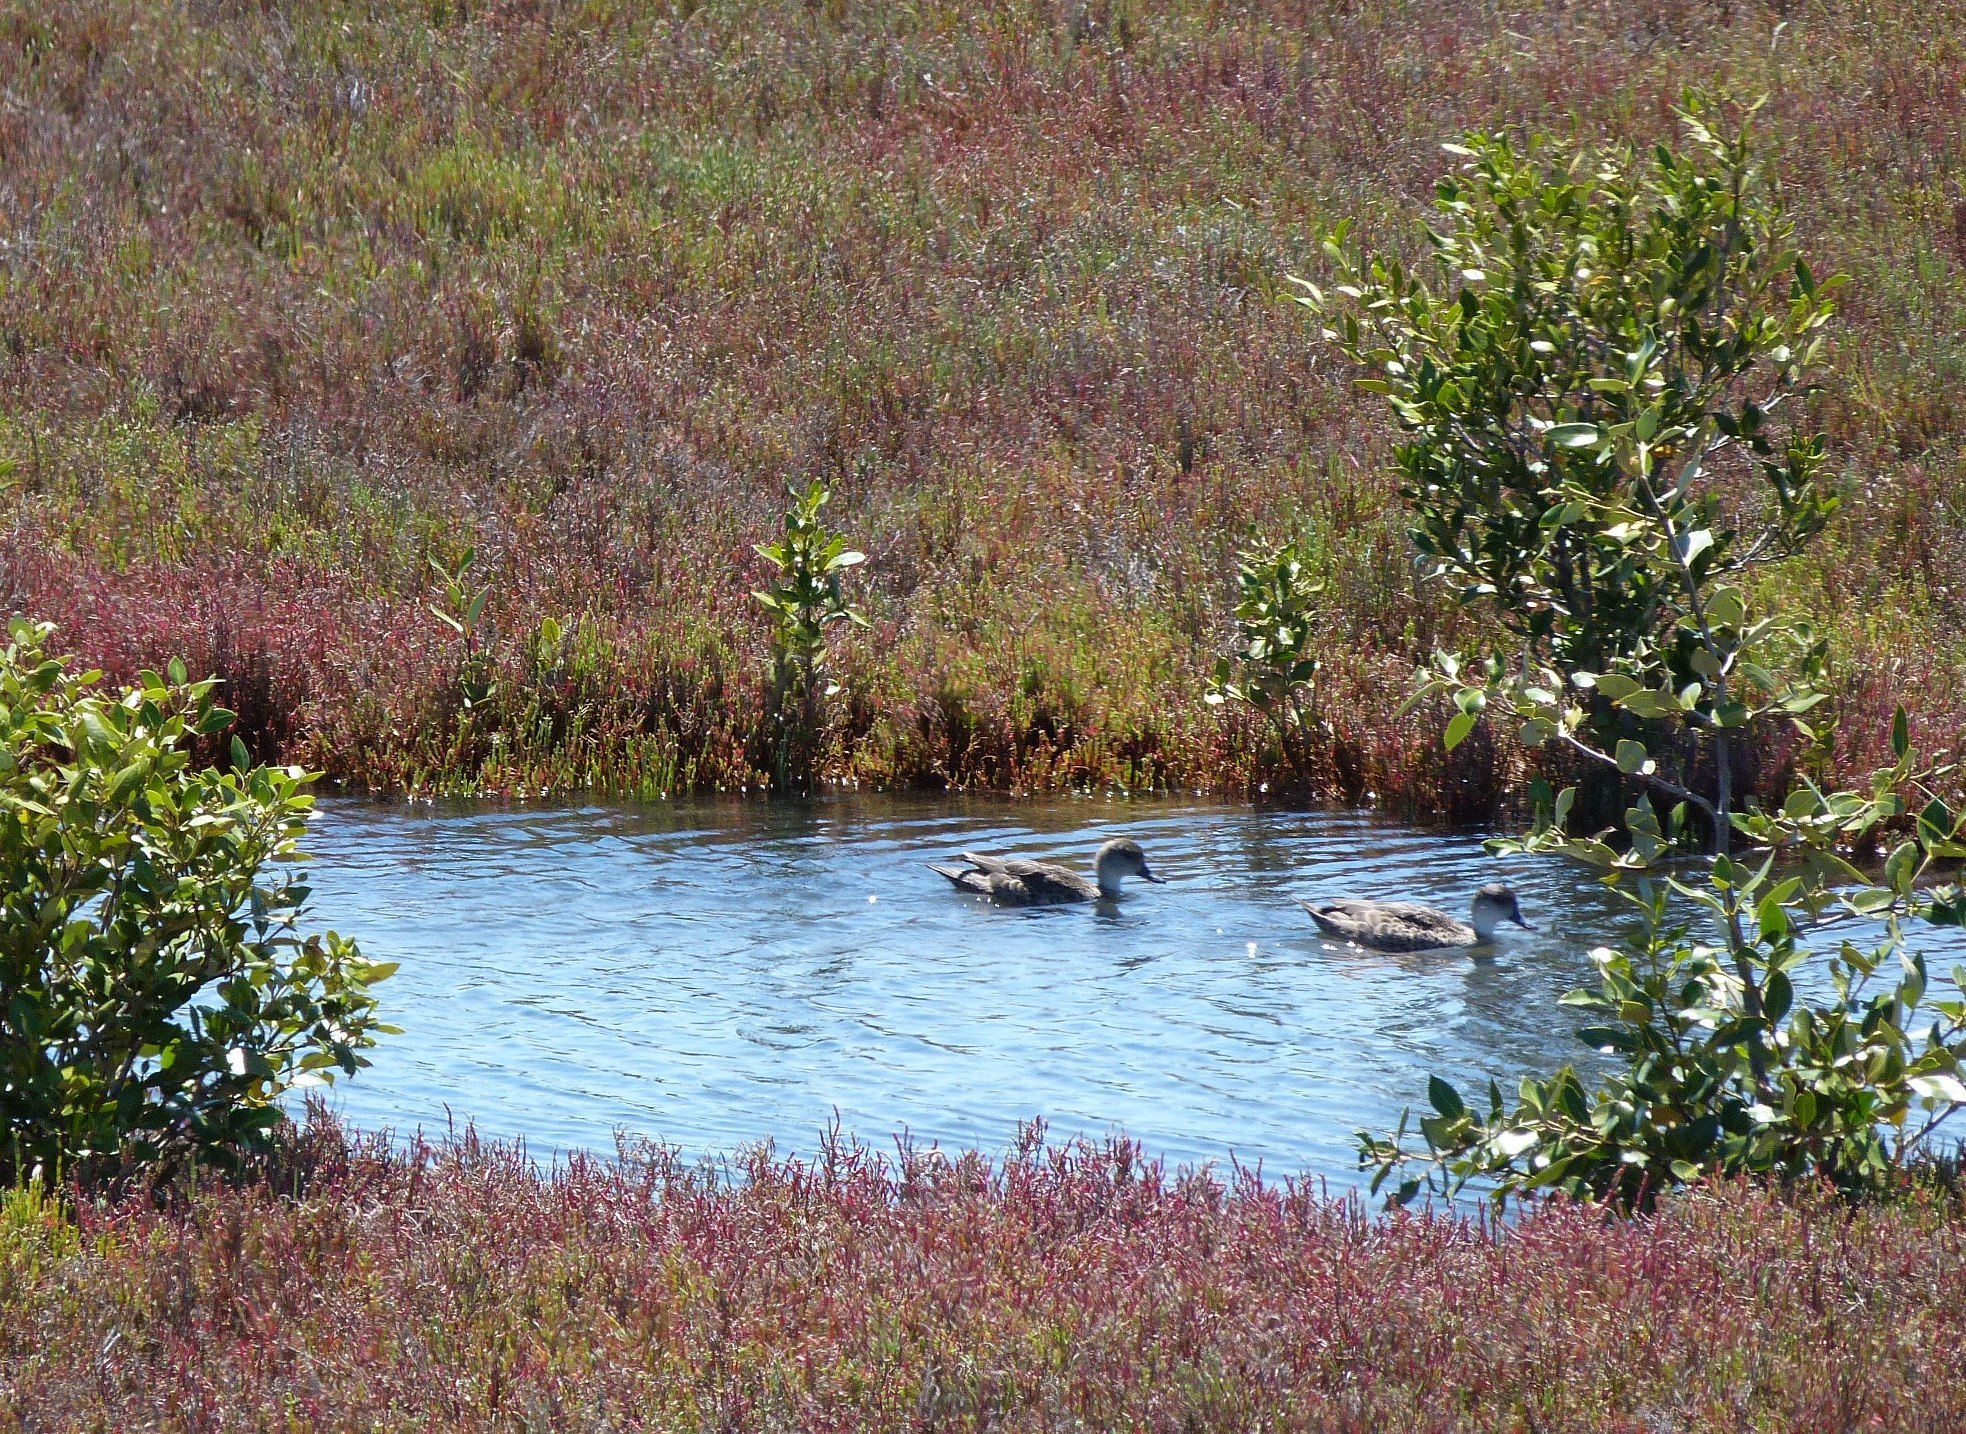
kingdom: Animalia
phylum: Chordata
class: Aves
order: Anseriformes
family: Anatidae
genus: Anas
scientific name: Anas gracilis
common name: Grey teal
